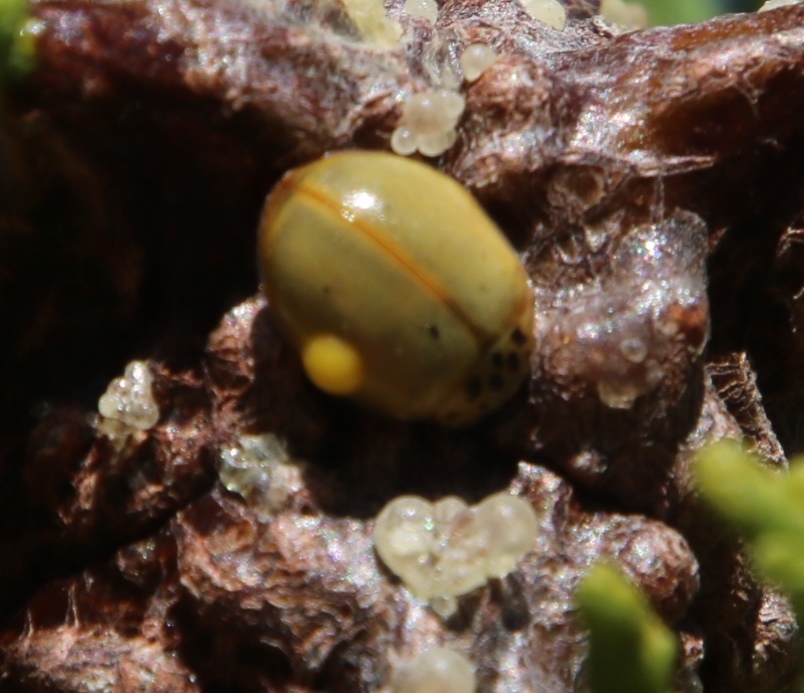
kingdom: Animalia
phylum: Arthropoda
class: Insecta
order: Coleoptera
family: Coccinellidae
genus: Harmonia
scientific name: Harmonia axyridis
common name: Harlequin ladybird
